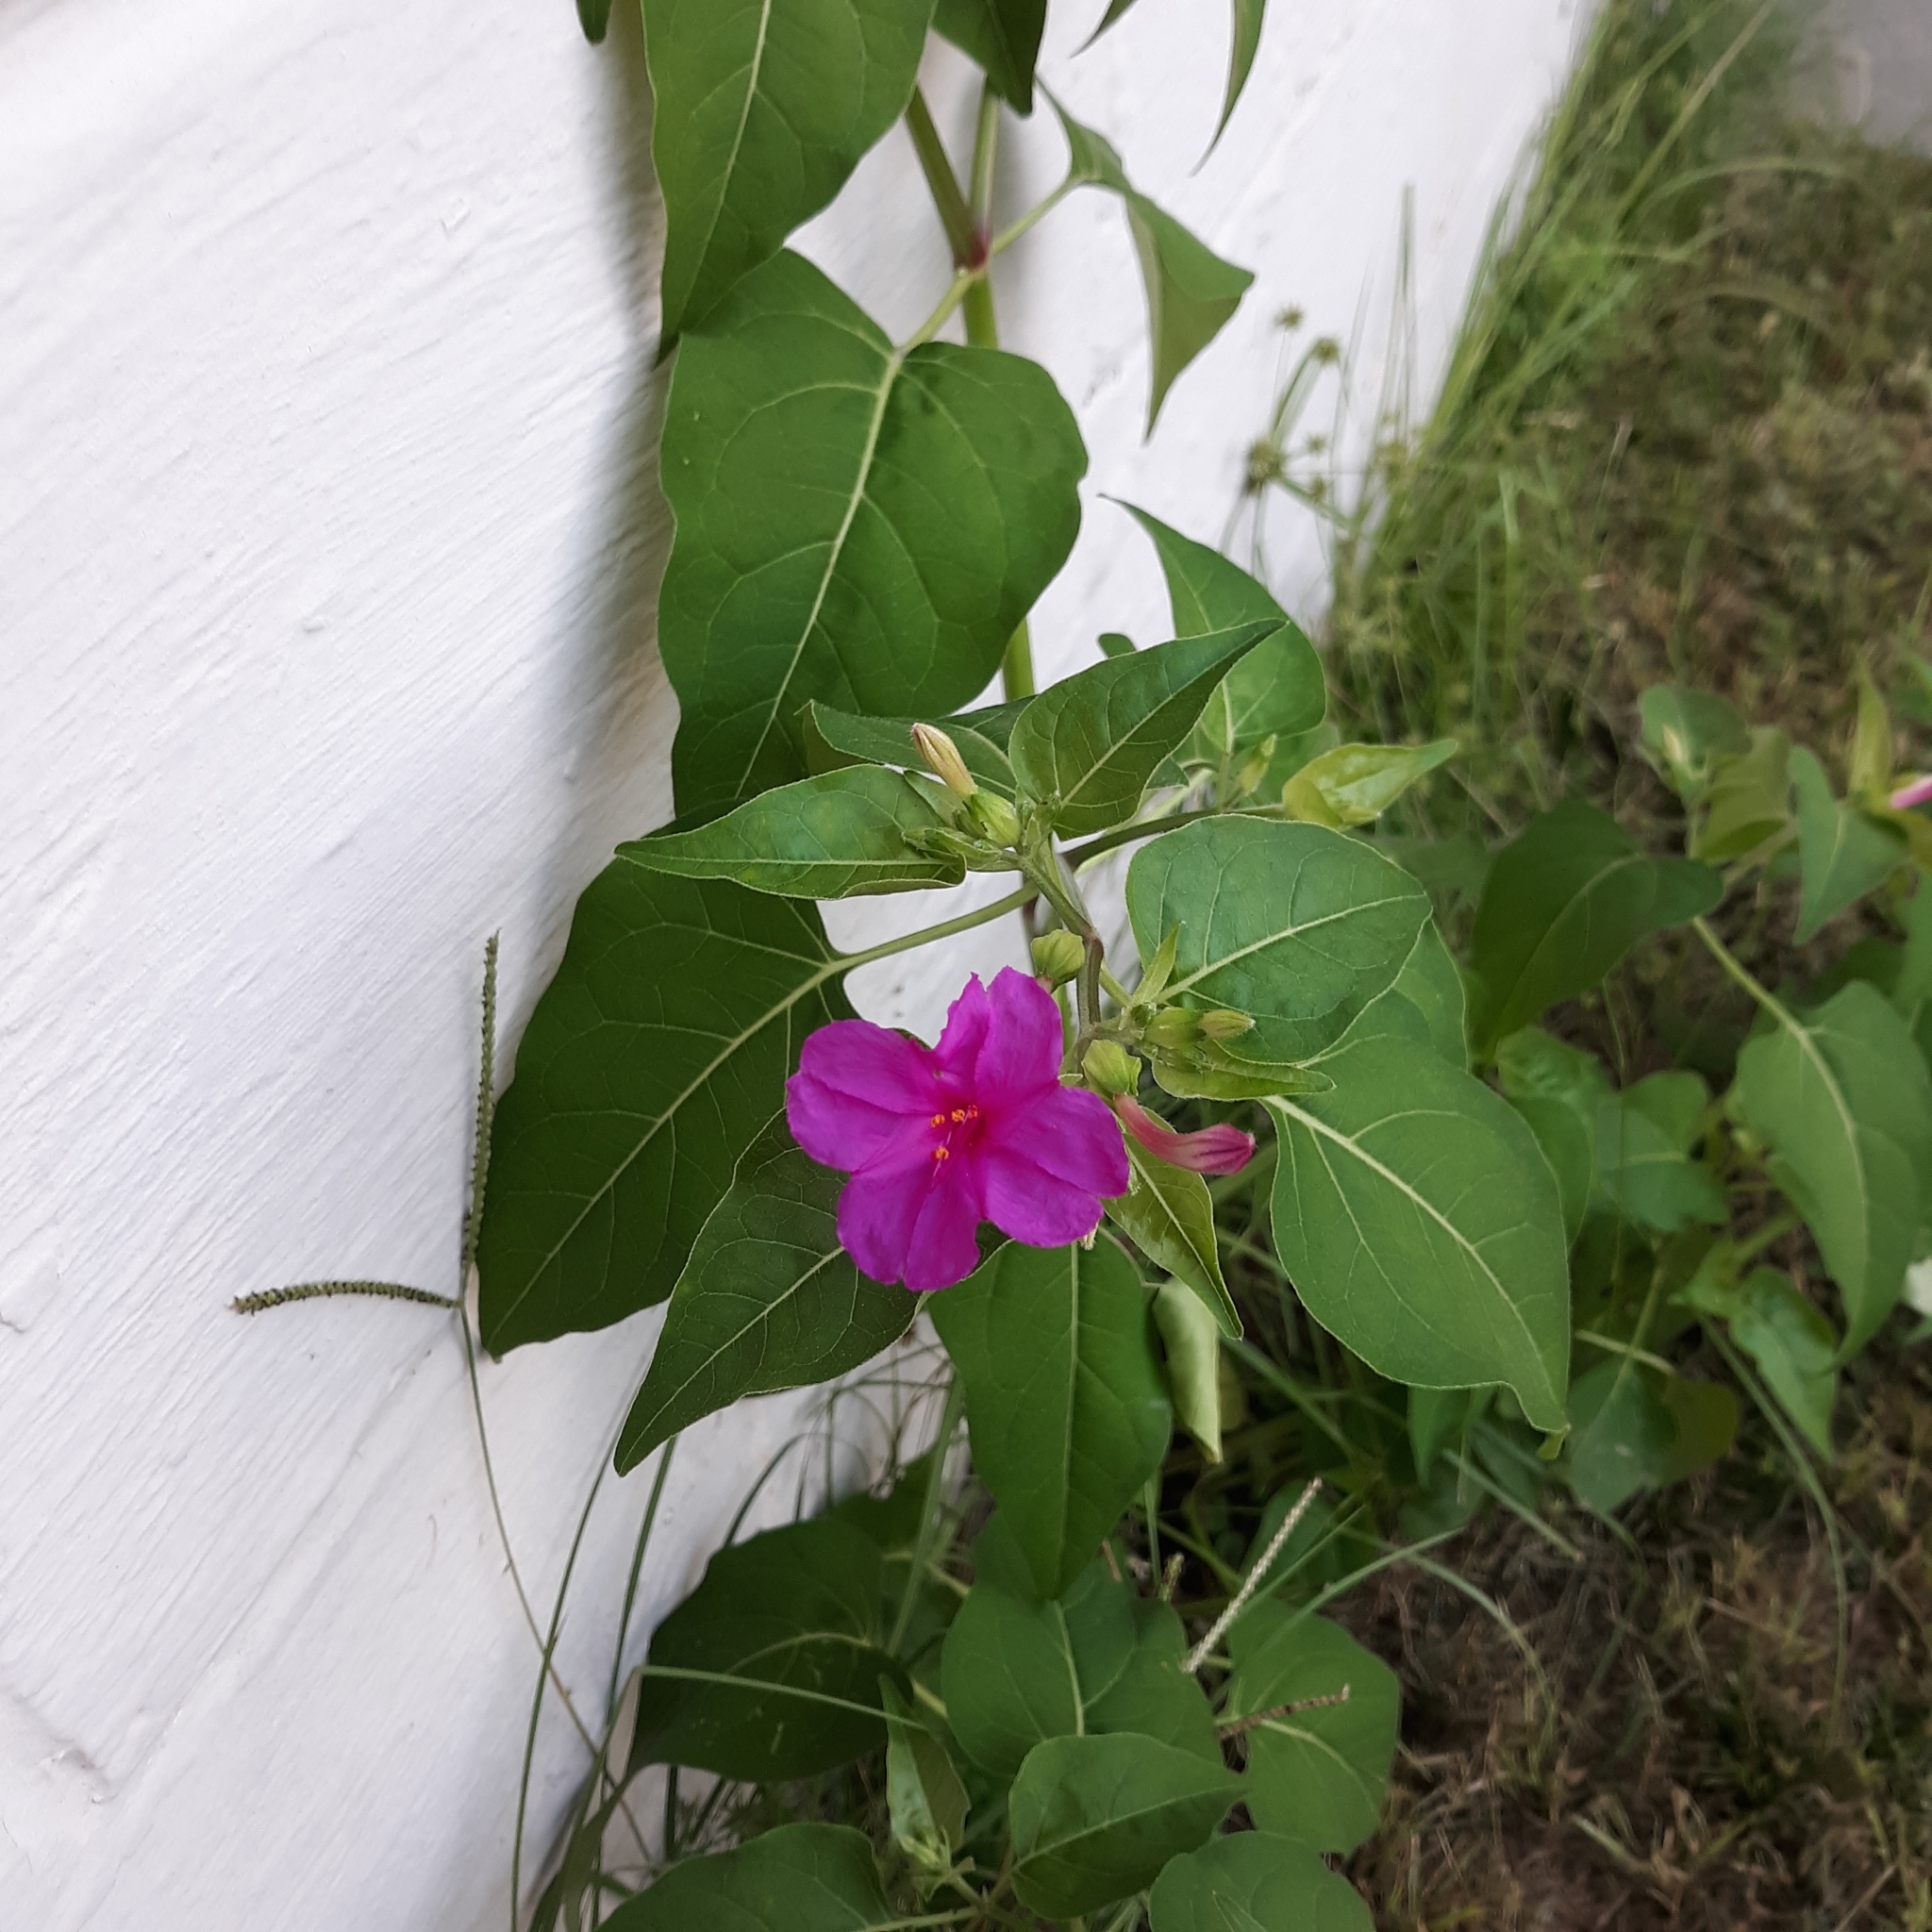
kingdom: Plantae
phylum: Tracheophyta
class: Magnoliopsida
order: Caryophyllales
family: Nyctaginaceae
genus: Mirabilis
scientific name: Mirabilis jalapa
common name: Marvel-of-peru
